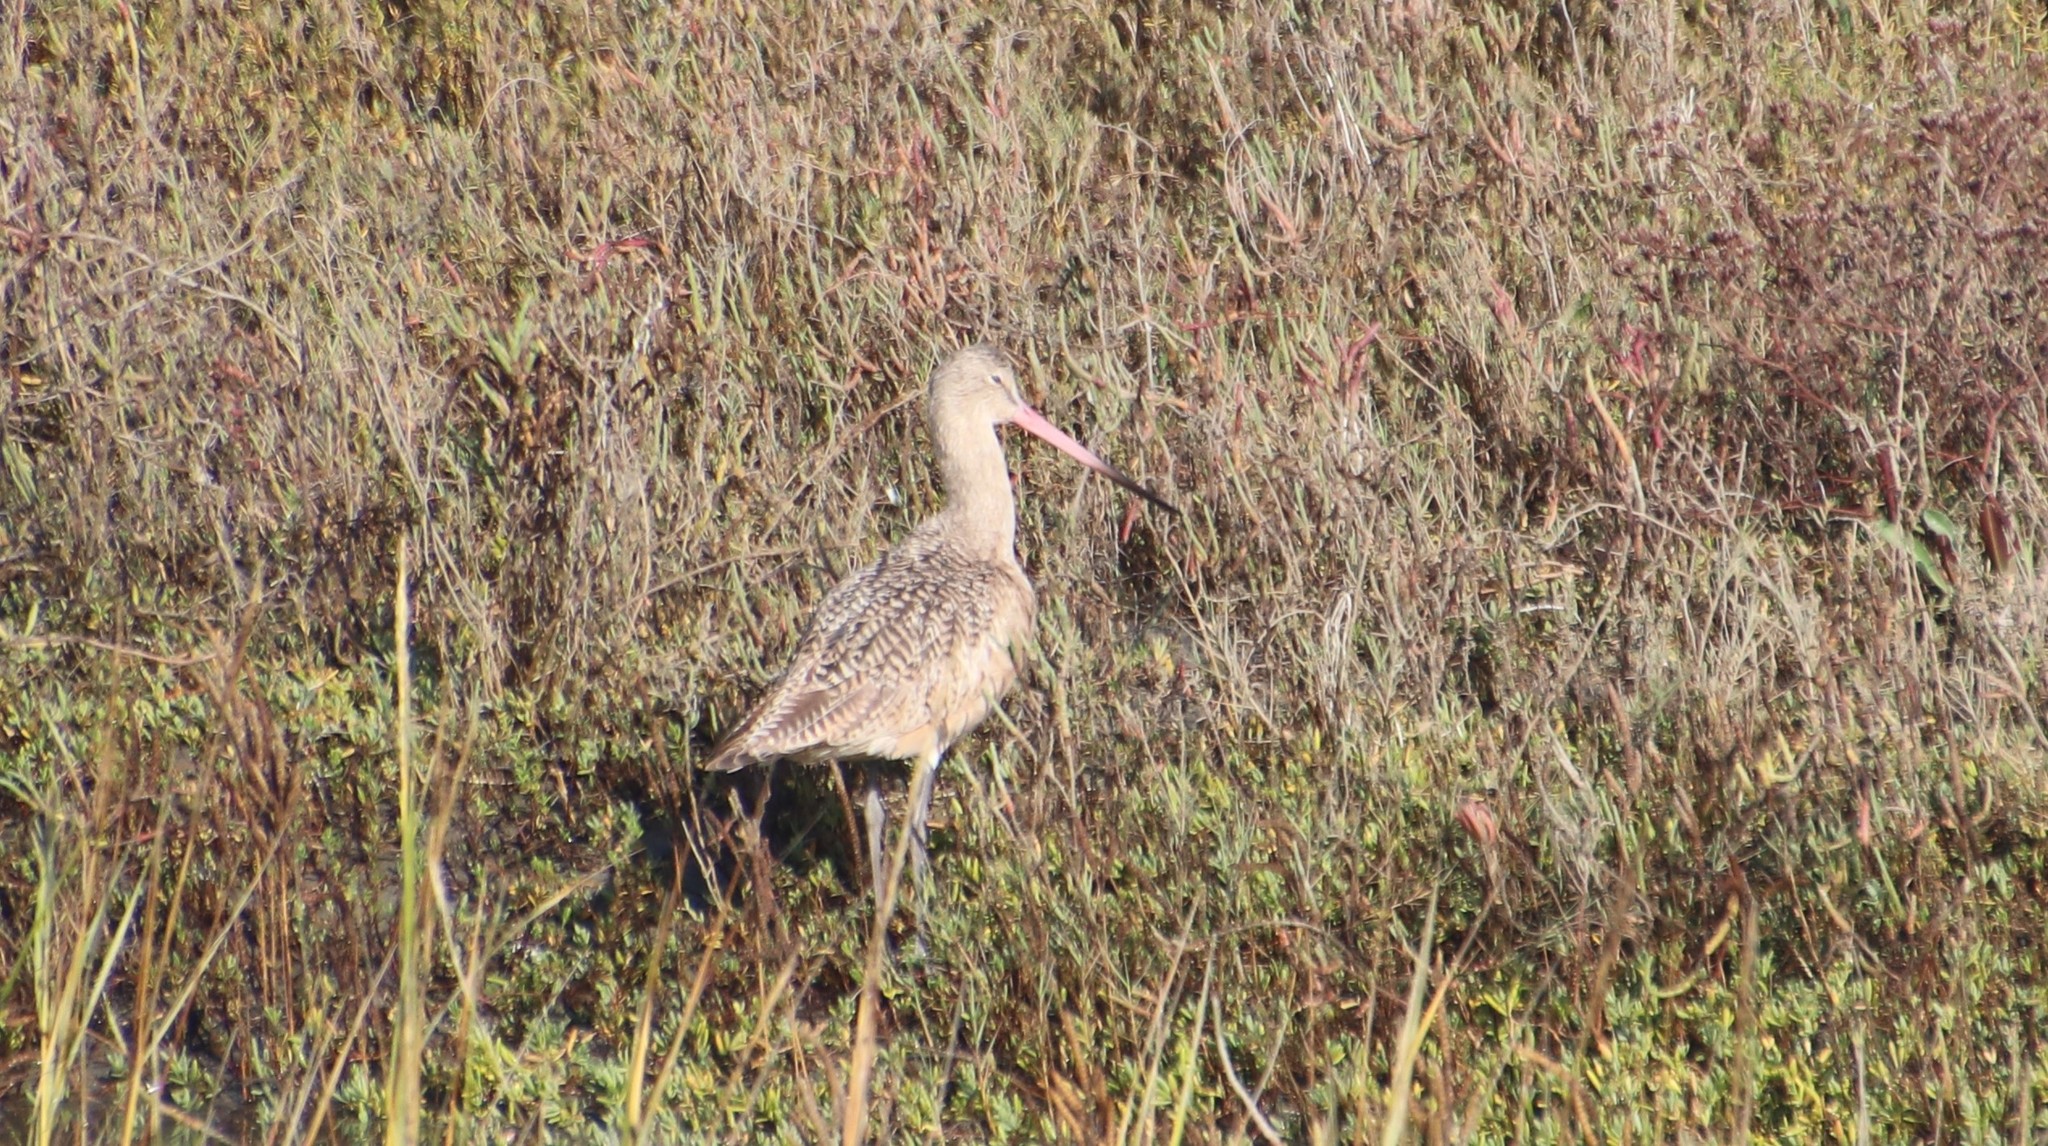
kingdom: Animalia
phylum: Chordata
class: Aves
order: Charadriiformes
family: Scolopacidae
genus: Limosa
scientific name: Limosa fedoa
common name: Marbled godwit
